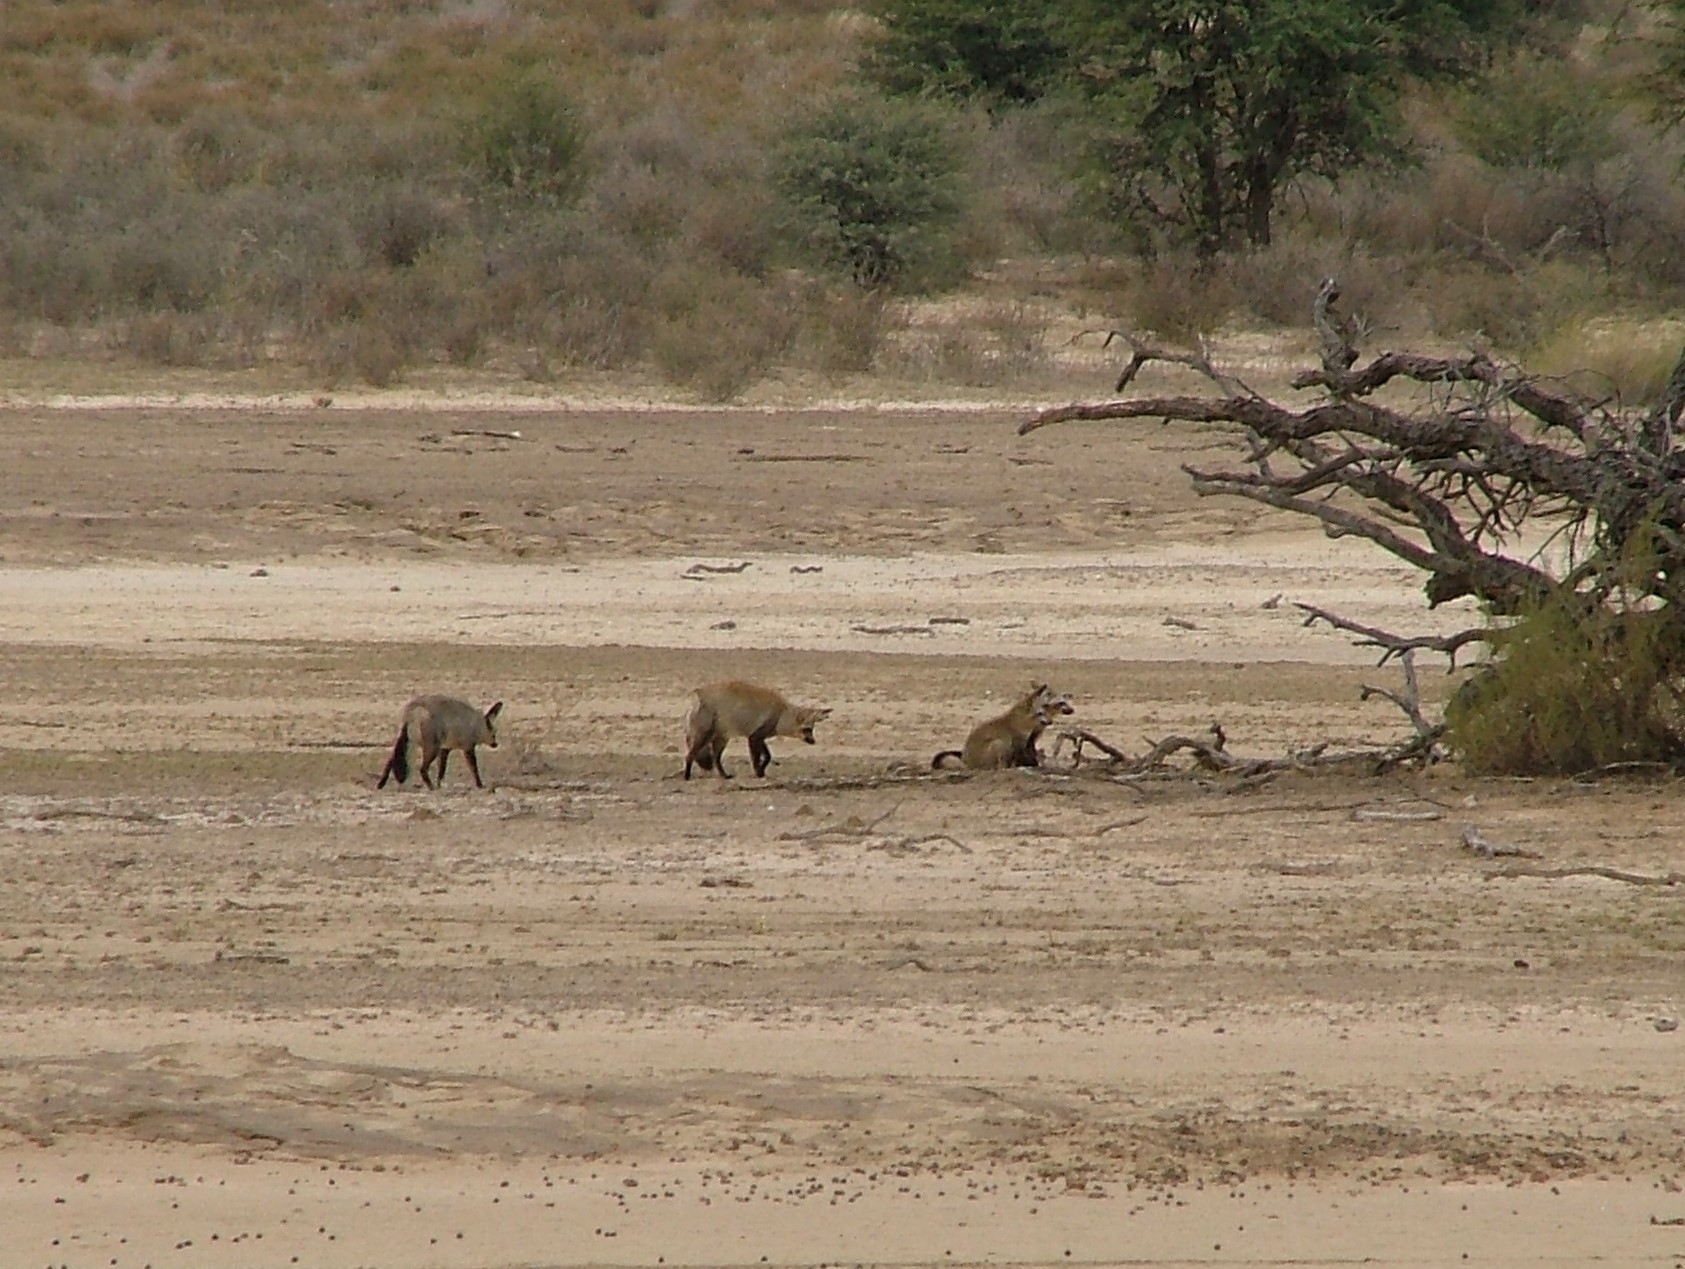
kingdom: Animalia
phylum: Chordata
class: Mammalia
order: Carnivora
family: Canidae
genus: Otocyon
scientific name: Otocyon megalotis
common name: Bat-eared fox
